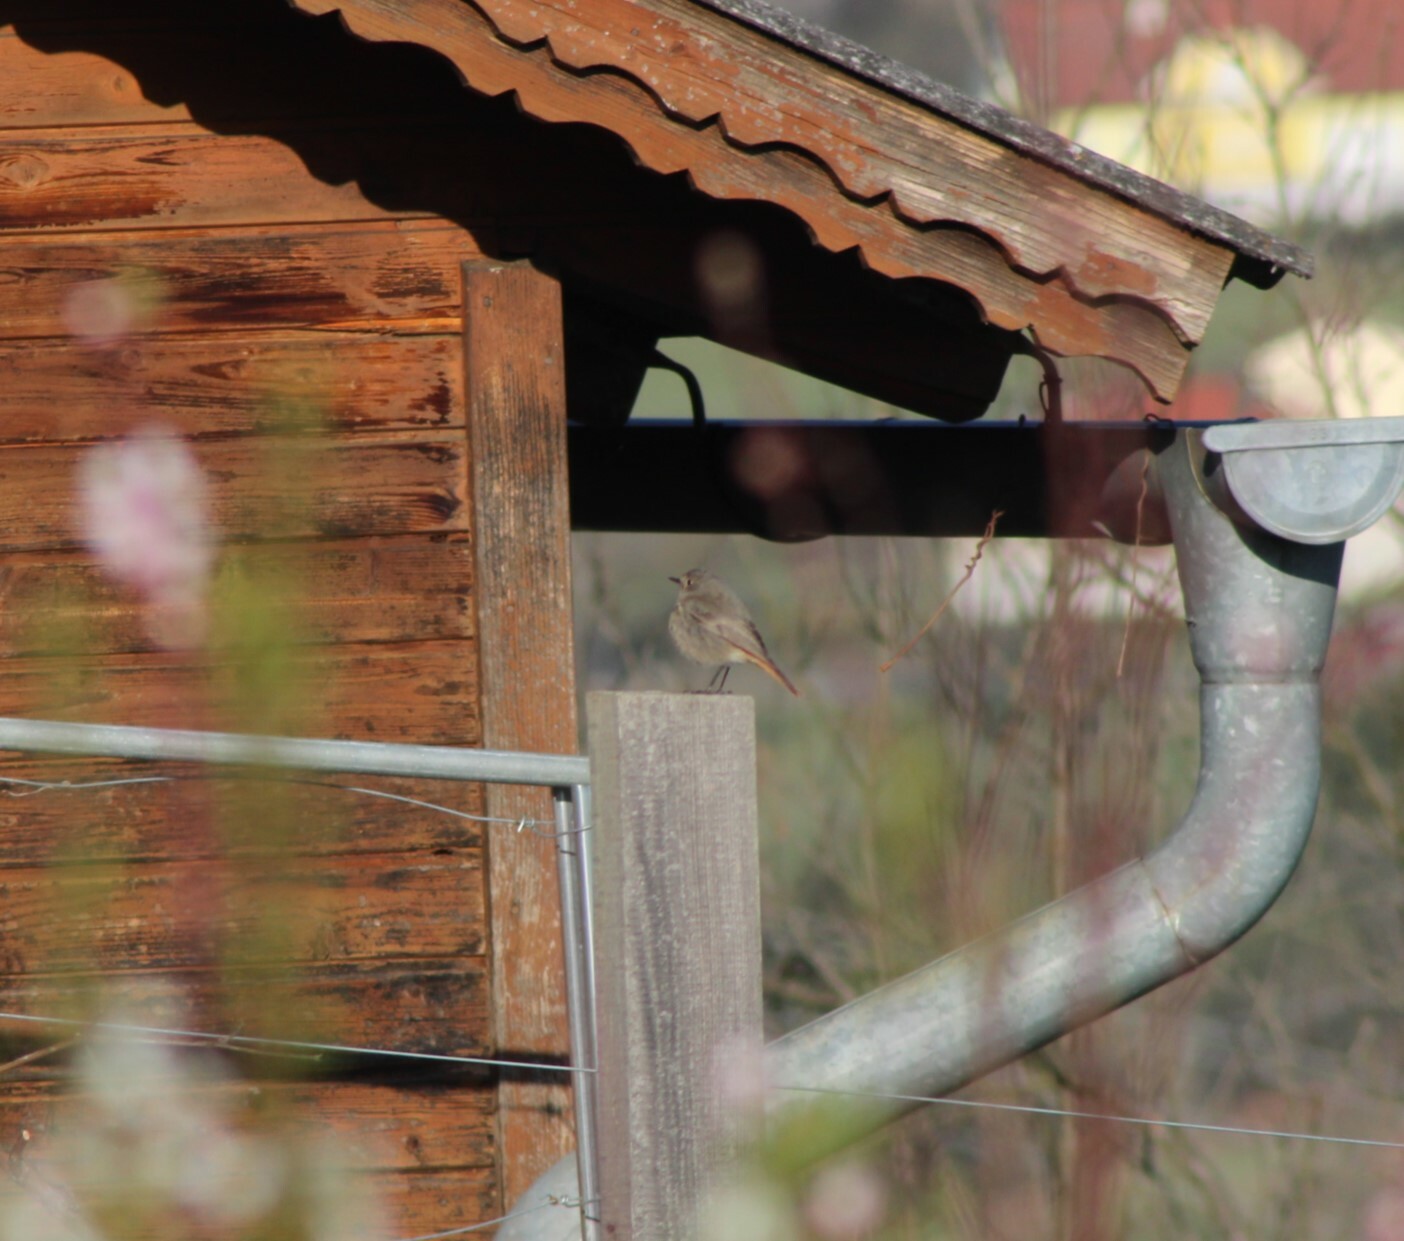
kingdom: Animalia
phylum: Chordata
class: Aves
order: Passeriformes
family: Muscicapidae
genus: Phoenicurus
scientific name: Phoenicurus ochruros
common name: Black redstart
